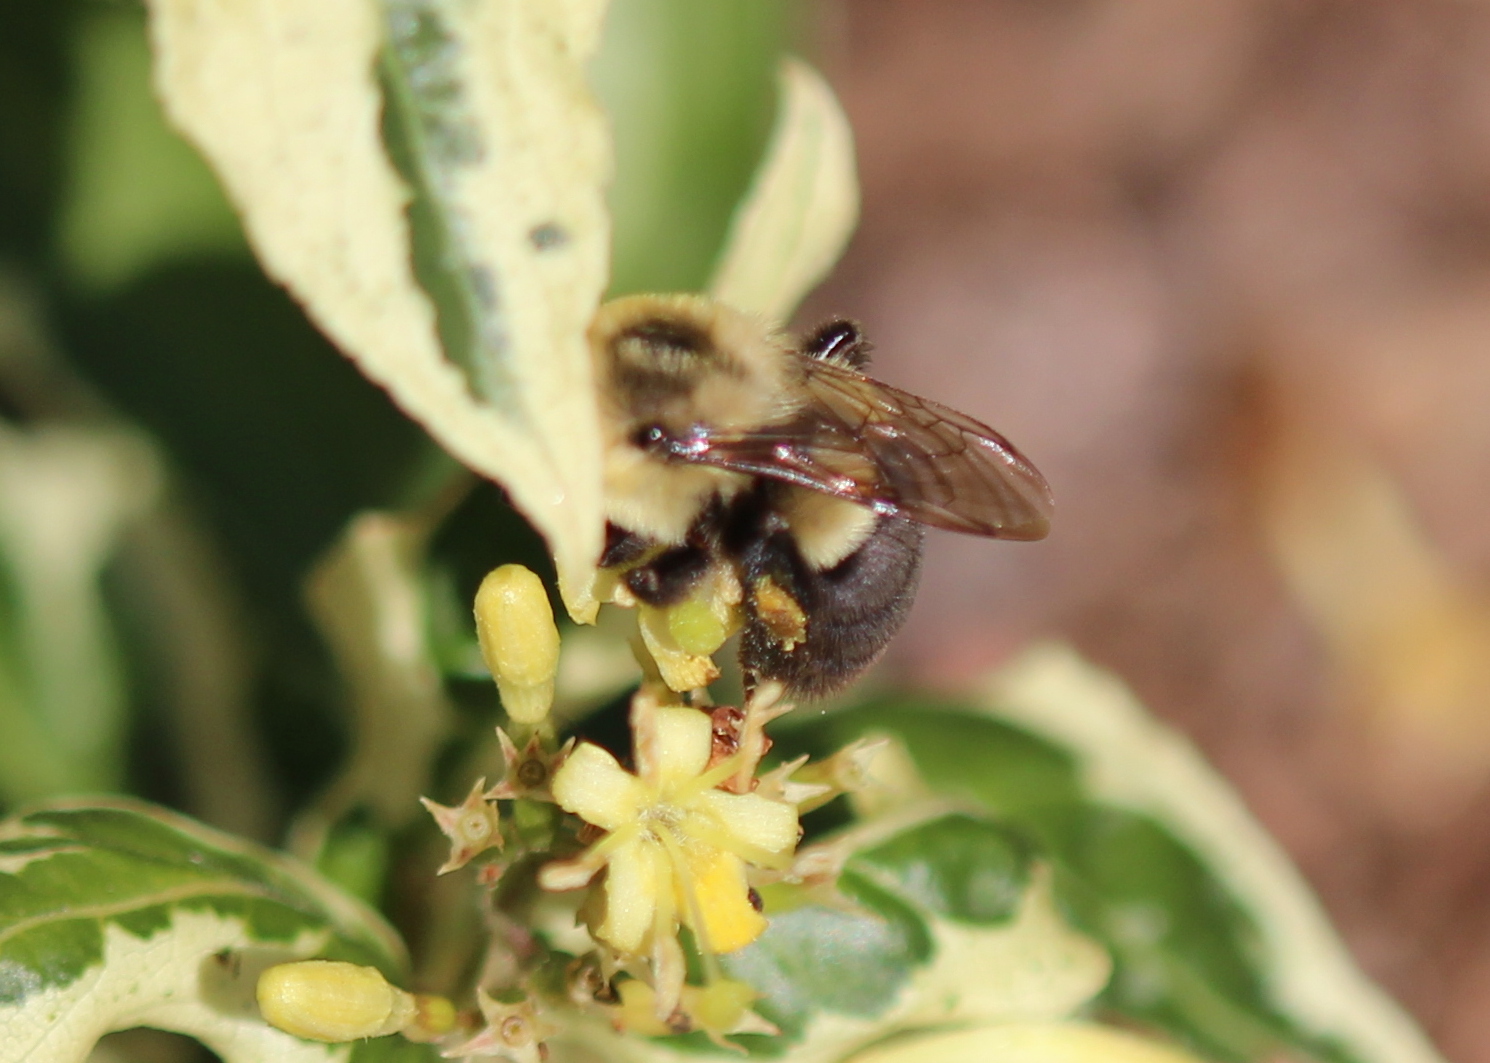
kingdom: Animalia
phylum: Arthropoda
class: Insecta
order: Hymenoptera
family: Apidae
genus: Bombus
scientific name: Bombus impatiens
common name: Common eastern bumble bee
